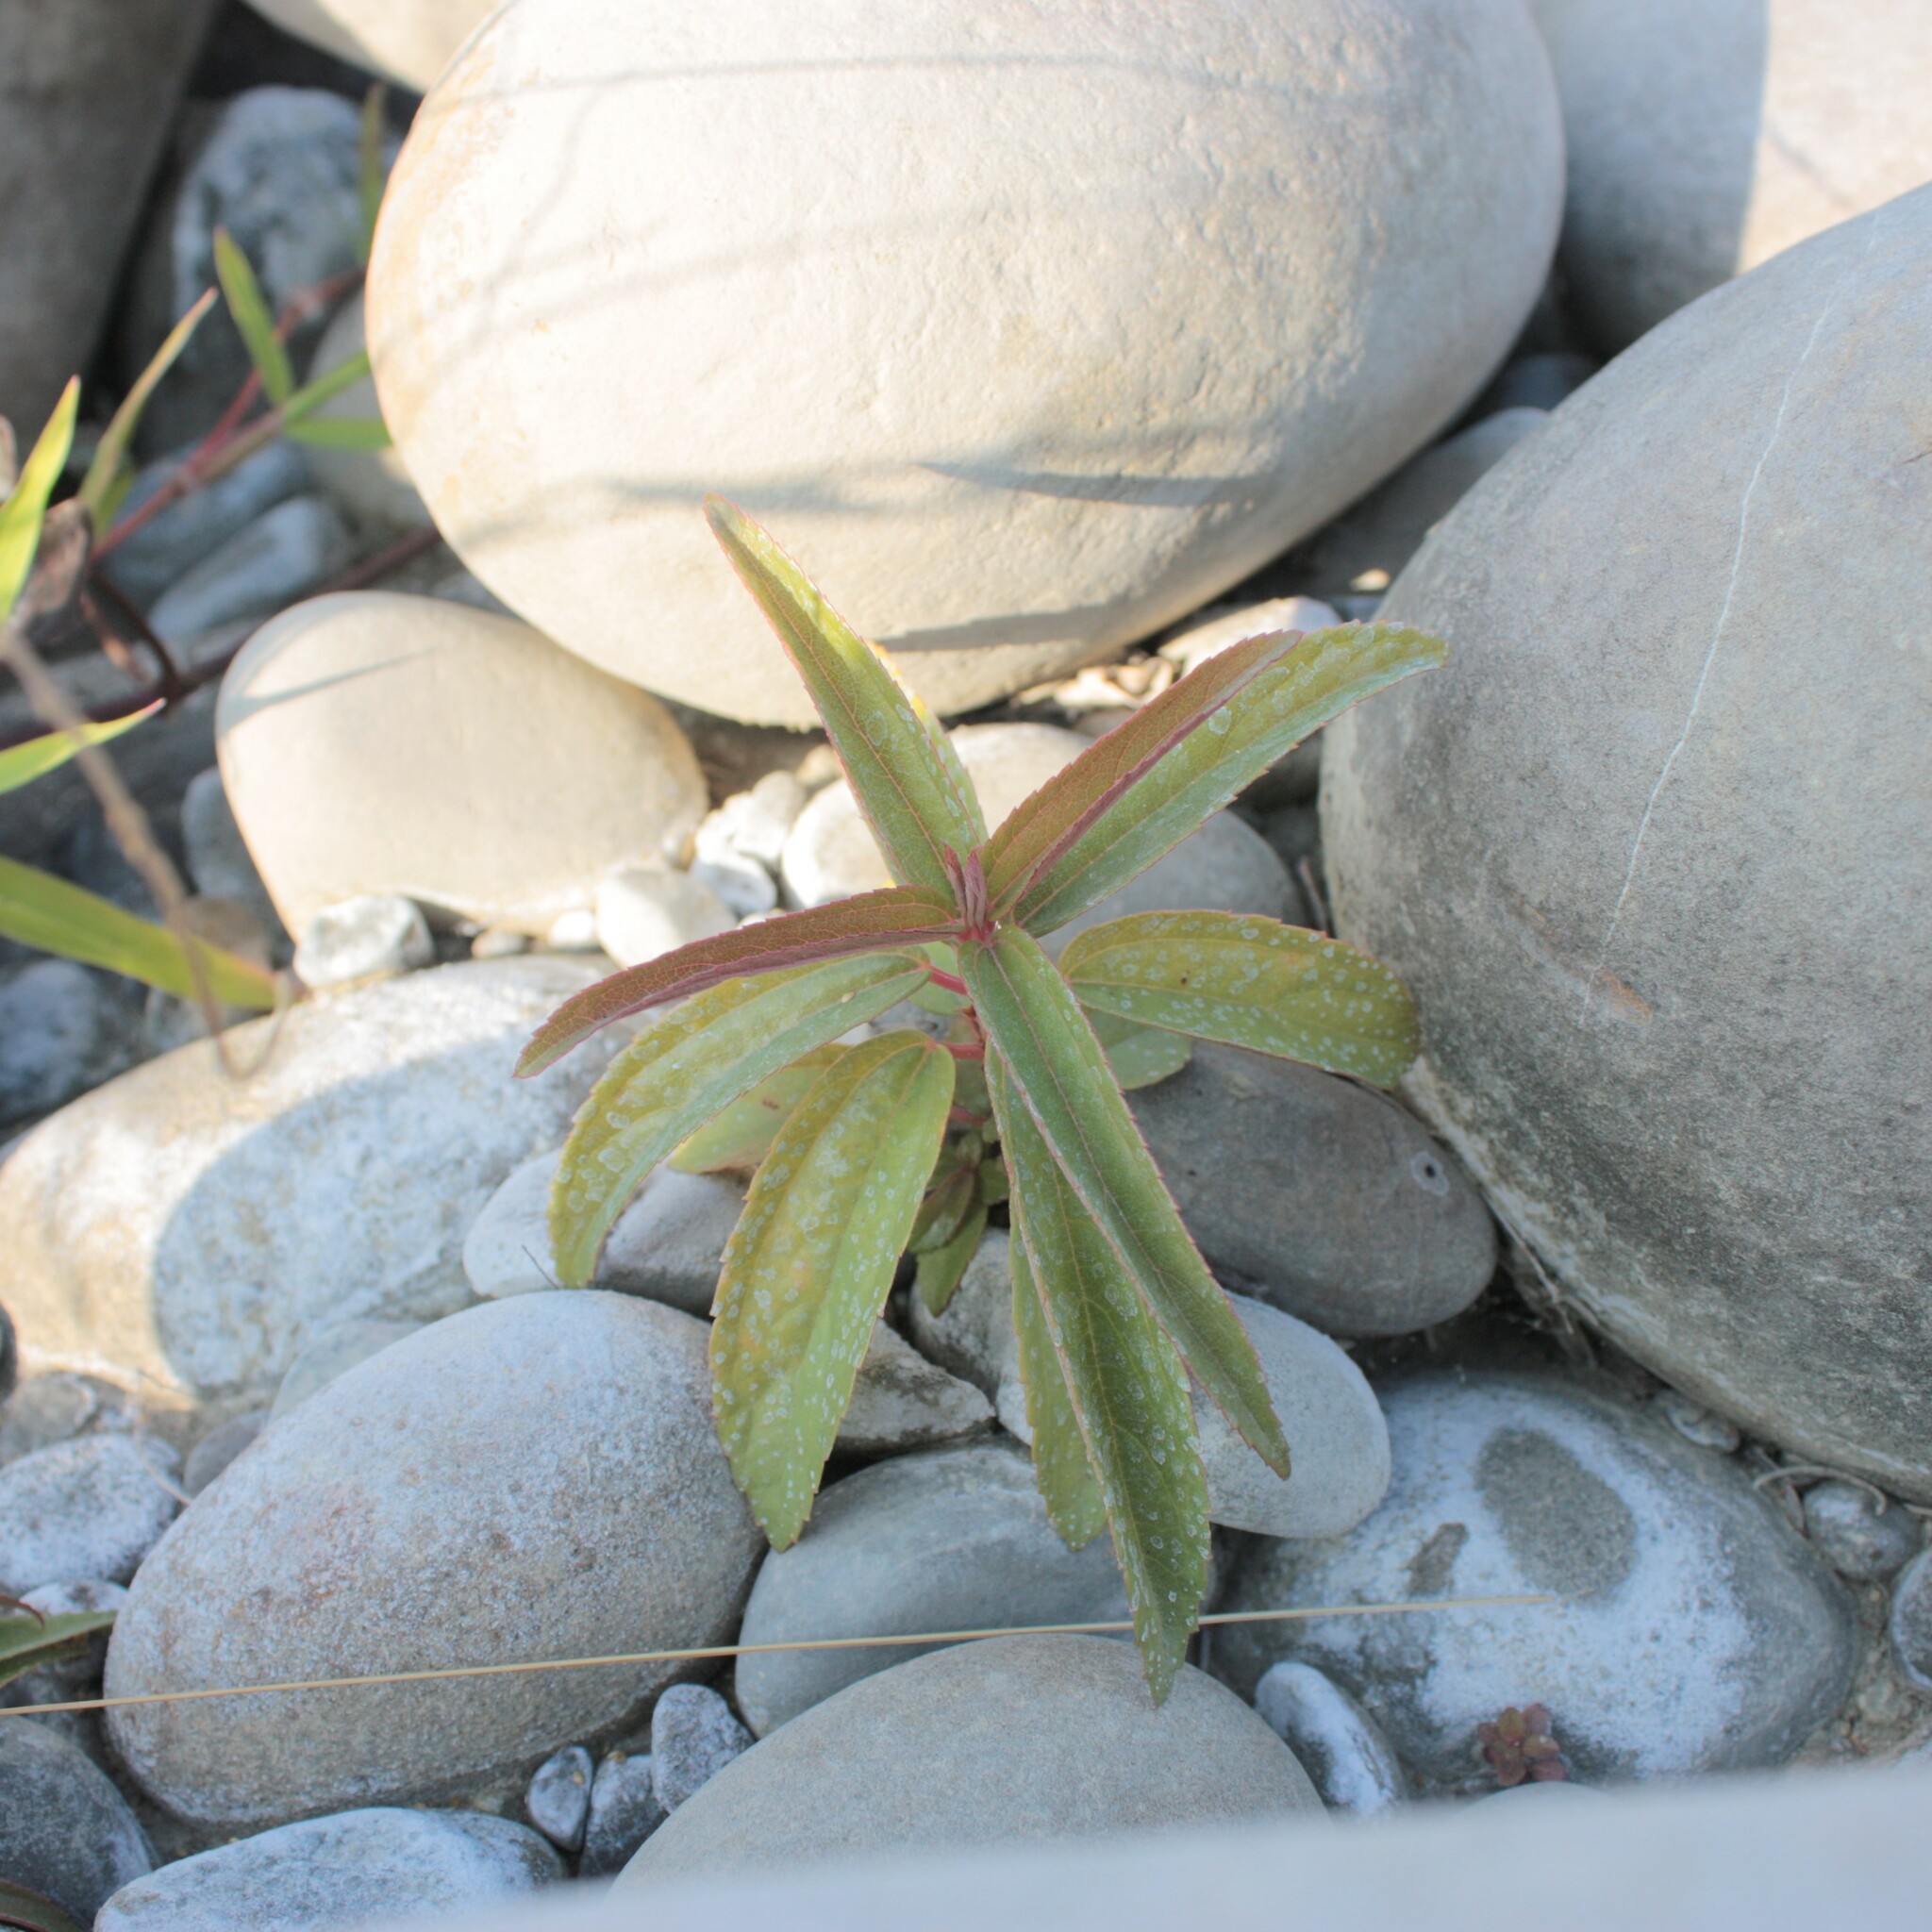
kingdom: Plantae
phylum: Tracheophyta
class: Magnoliopsida
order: Rosales
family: Urticaceae
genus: Boehmeria
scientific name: Boehmeria densiflora
